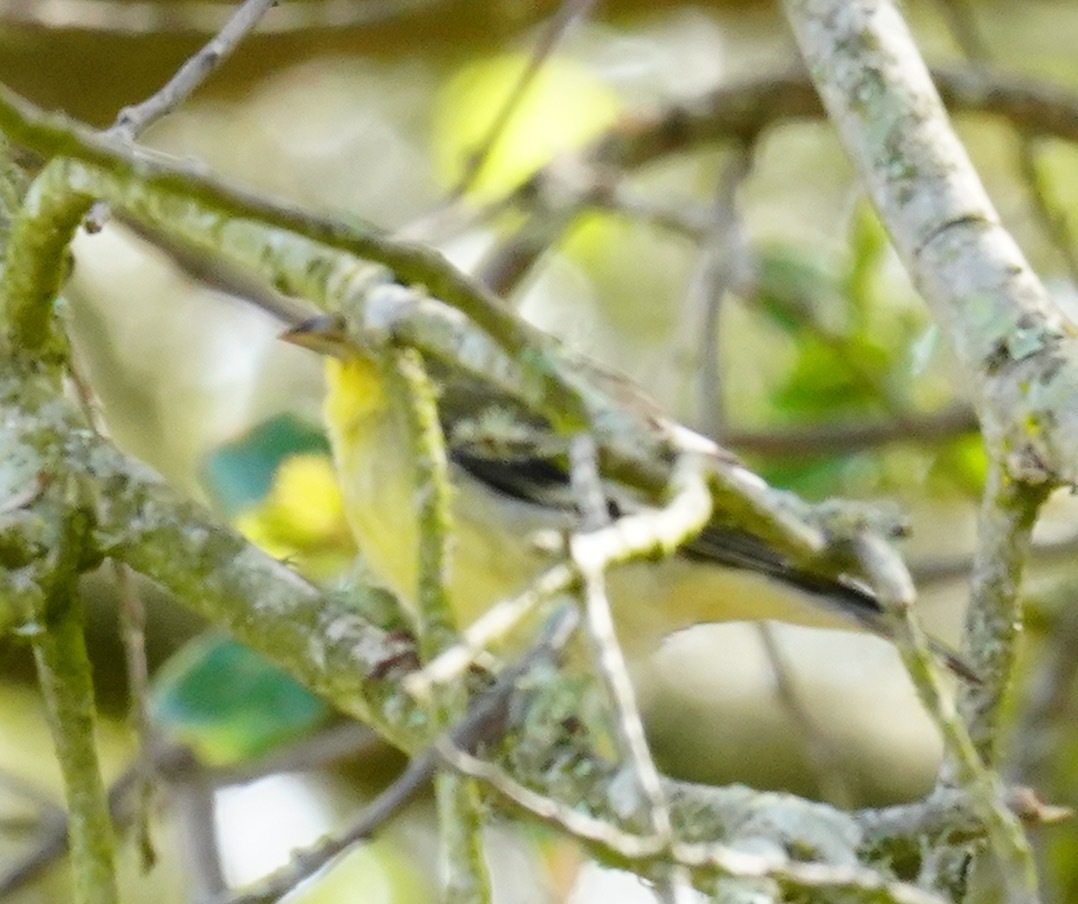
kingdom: Animalia
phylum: Chordata
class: Aves
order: Passeriformes
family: Fringillidae
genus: Spinus
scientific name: Spinus psaltria
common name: Lesser goldfinch
